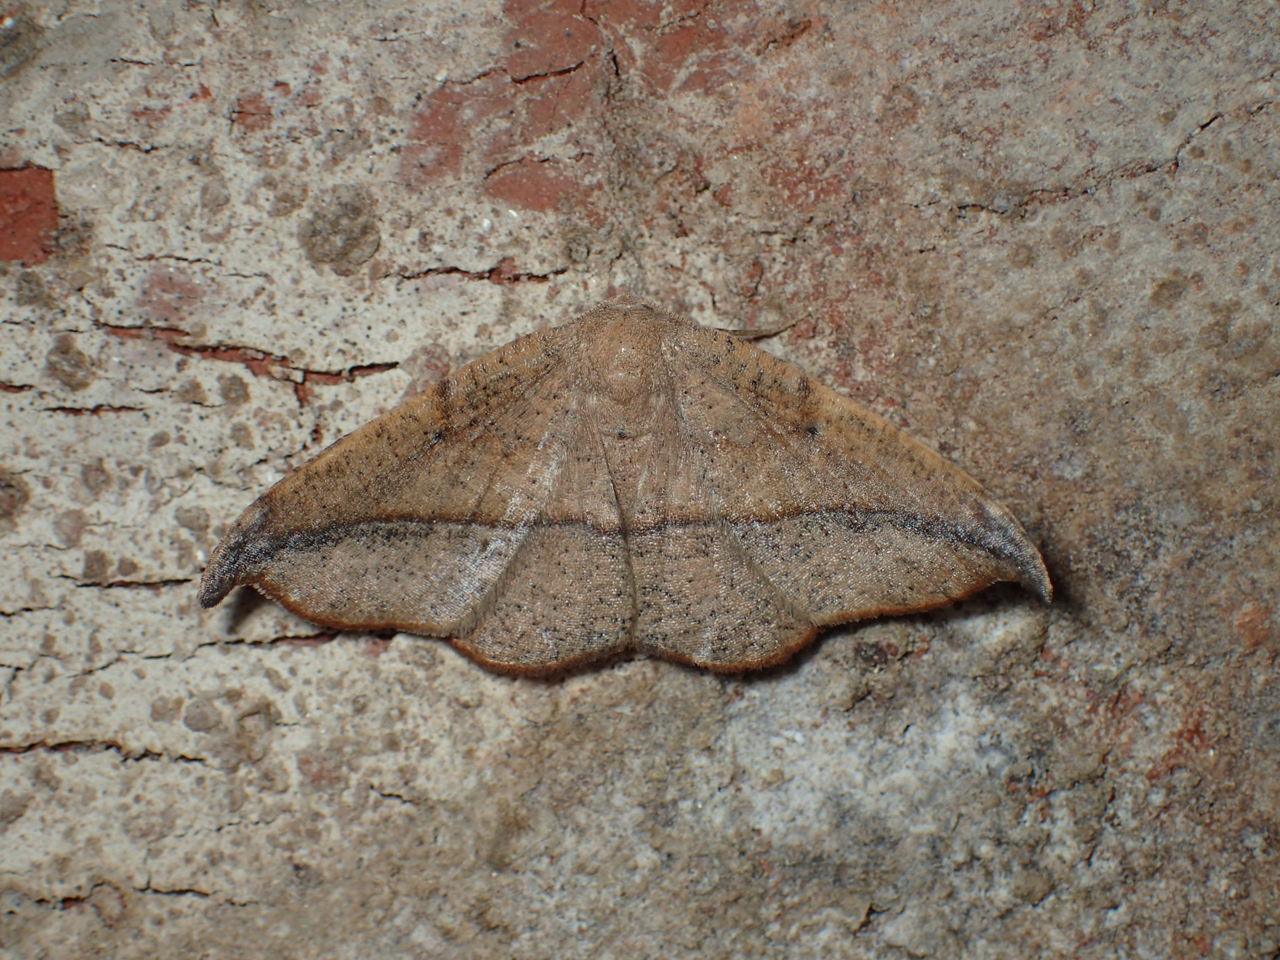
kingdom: Animalia
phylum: Arthropoda
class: Insecta
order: Lepidoptera
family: Geometridae
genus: Patalene
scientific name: Patalene olyzonaria
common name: Juniper geometer moth
